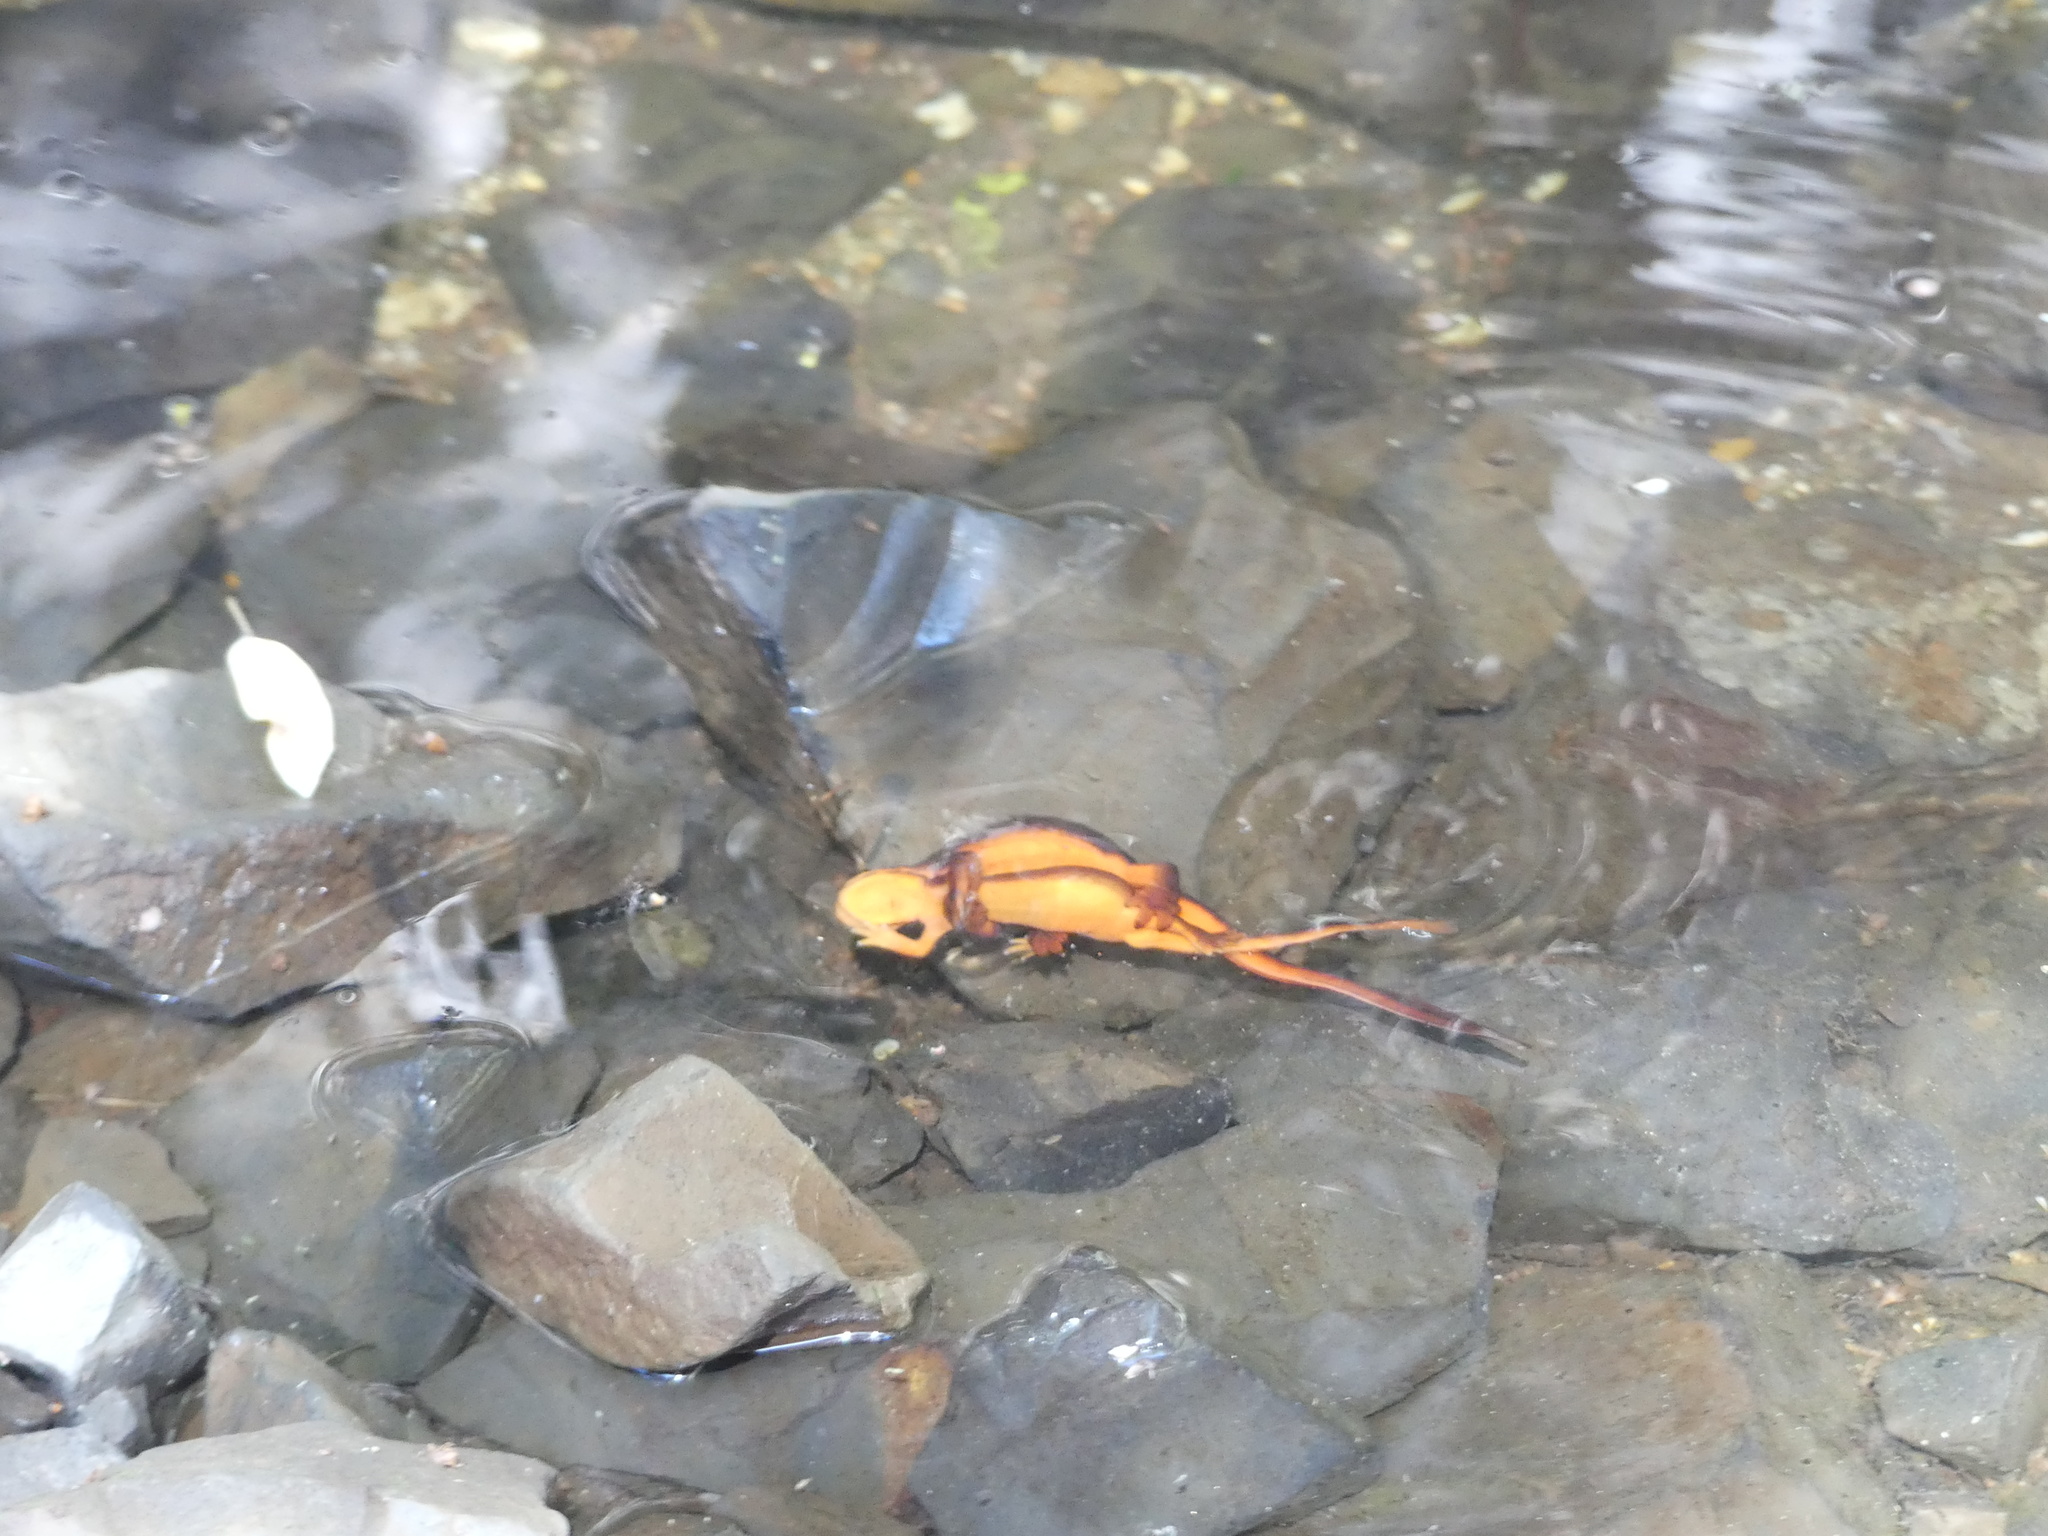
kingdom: Animalia
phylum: Chordata
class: Amphibia
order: Caudata
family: Salamandridae
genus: Taricha
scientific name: Taricha sierrae
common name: Sierra newt
